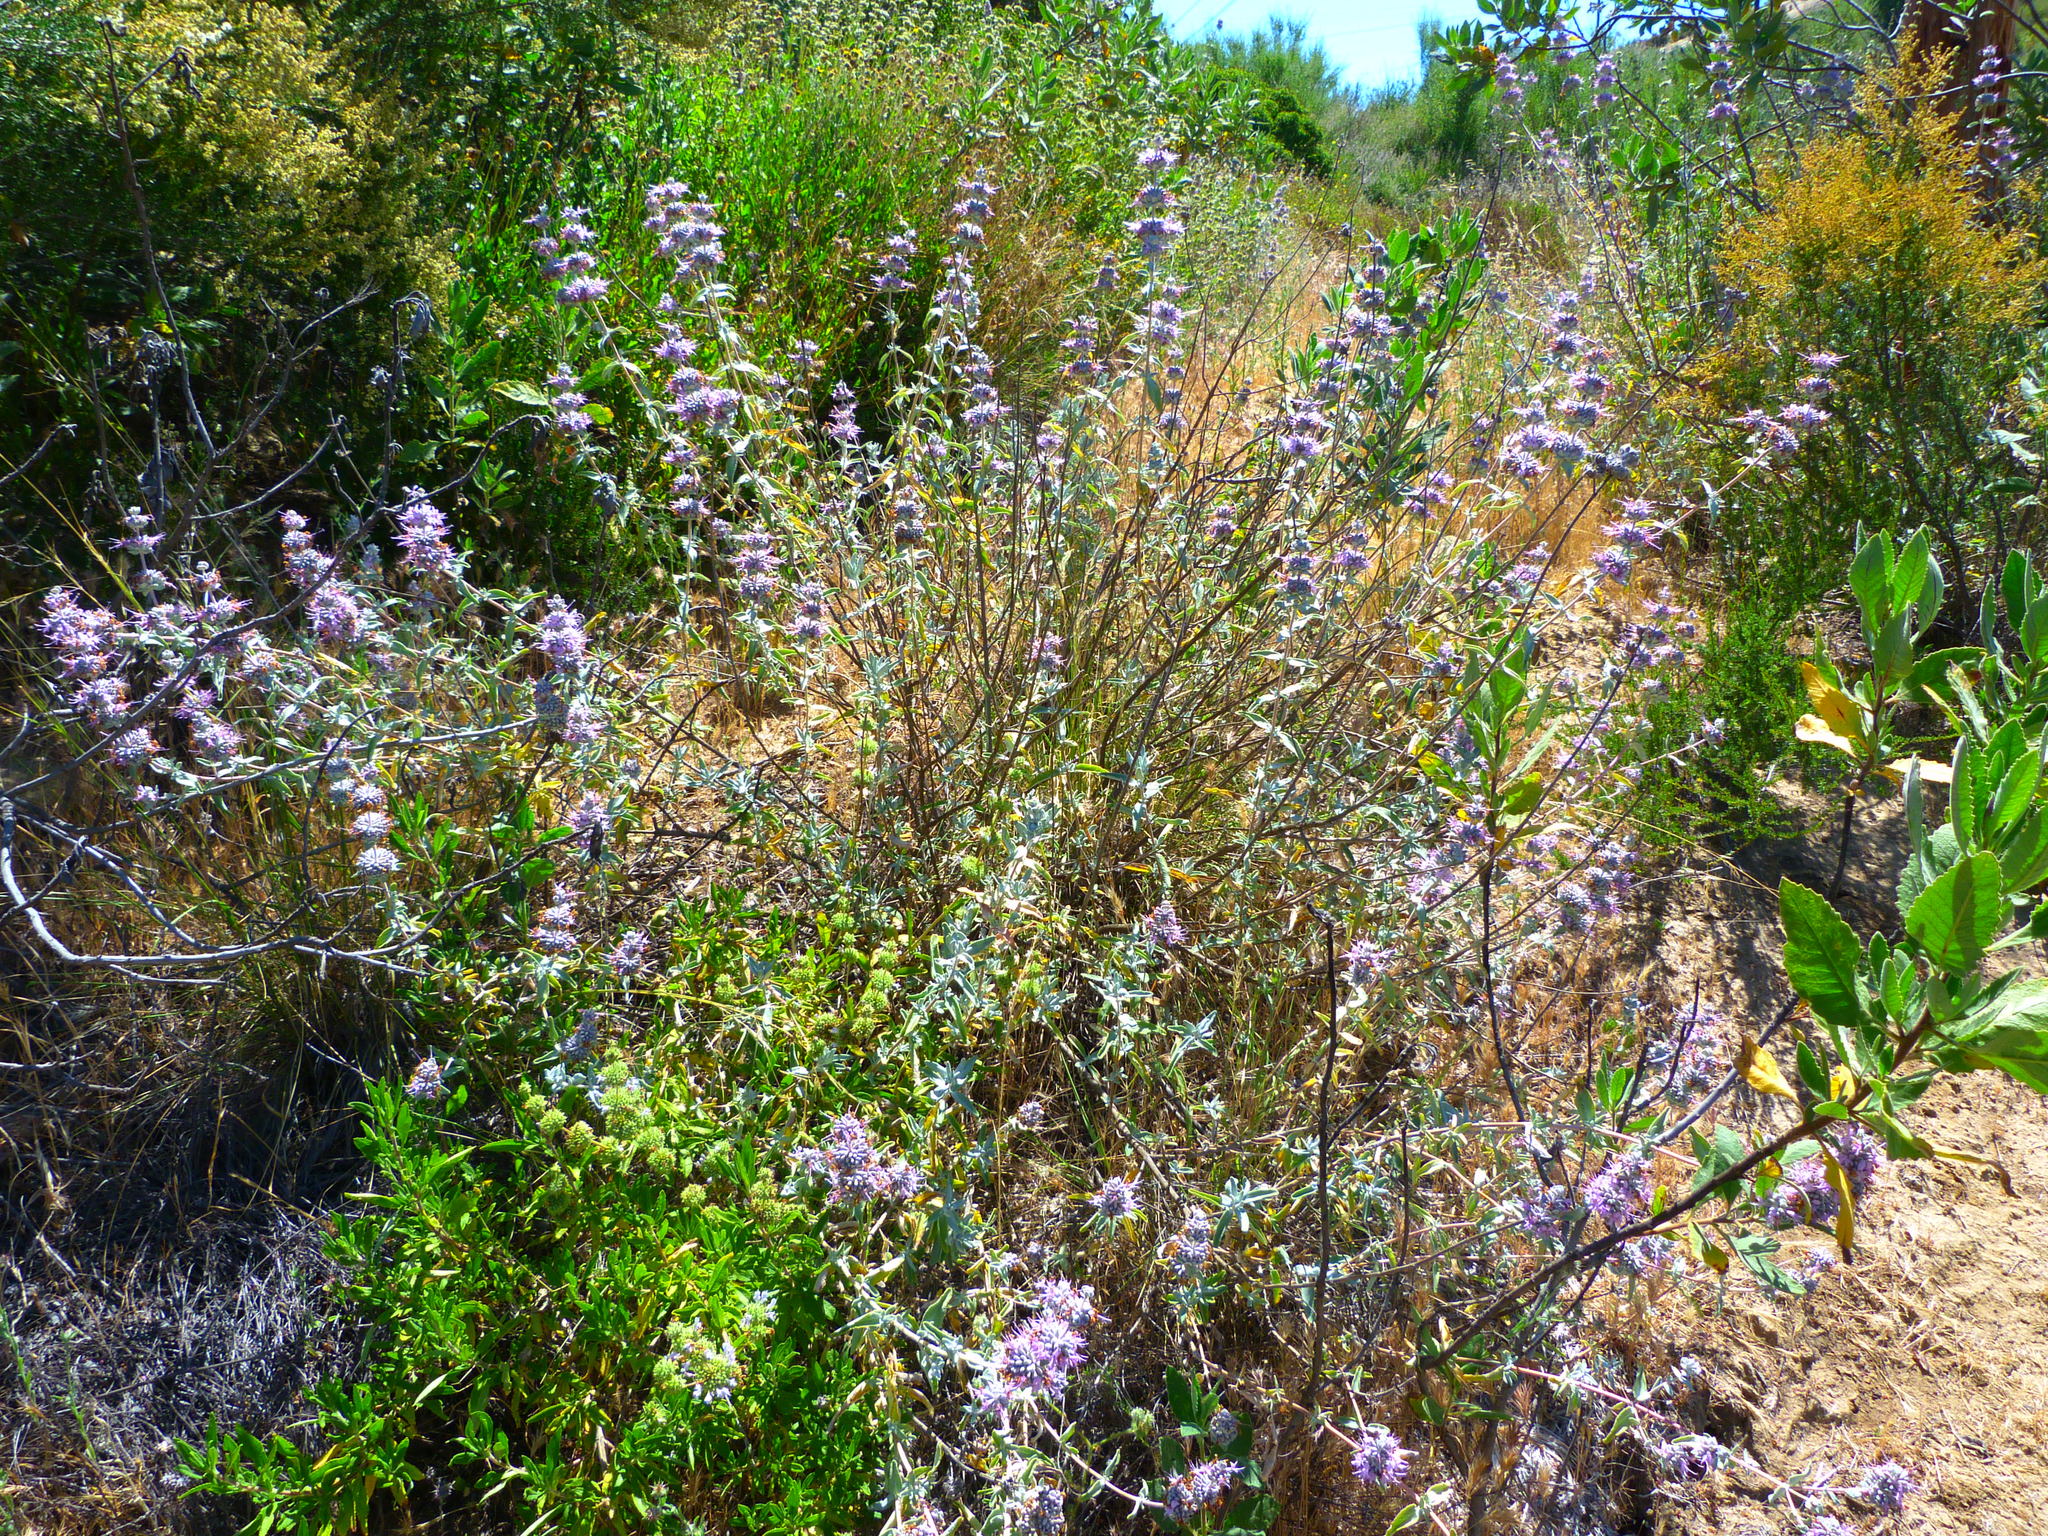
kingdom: Plantae
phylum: Tracheophyta
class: Magnoliopsida
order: Lamiales
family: Lamiaceae
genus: Salvia
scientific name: Salvia leucophylla
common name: Purple sage
